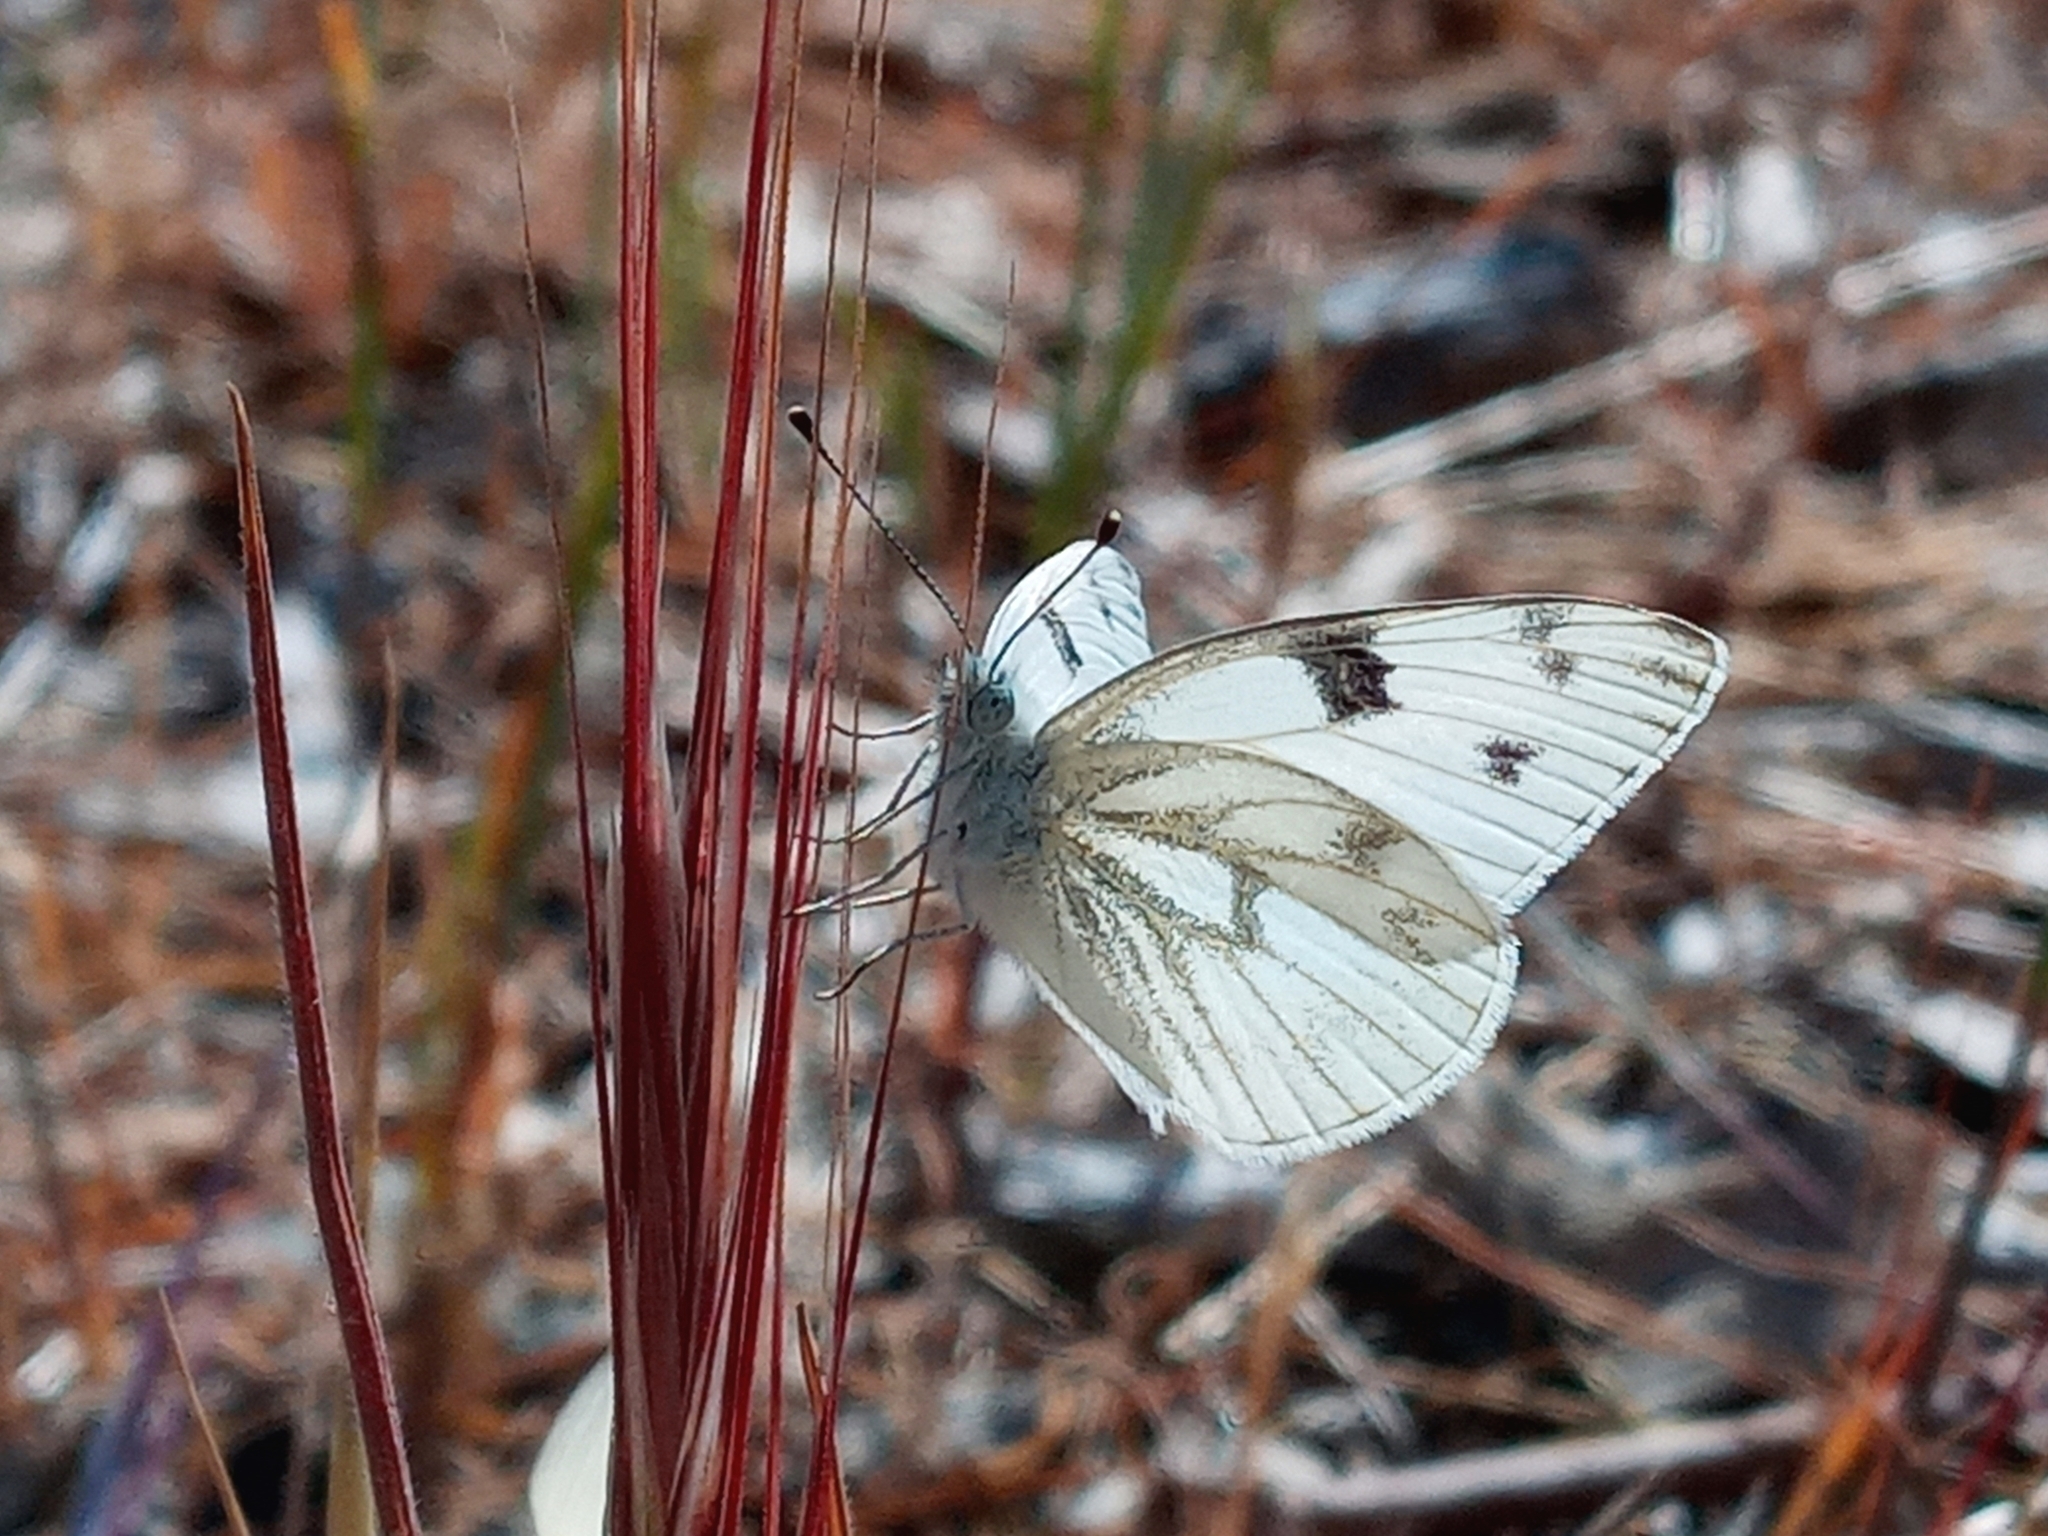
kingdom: Animalia
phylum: Arthropoda
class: Insecta
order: Lepidoptera
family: Pieridae
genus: Pontia
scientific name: Pontia protodice
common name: Checkered white
